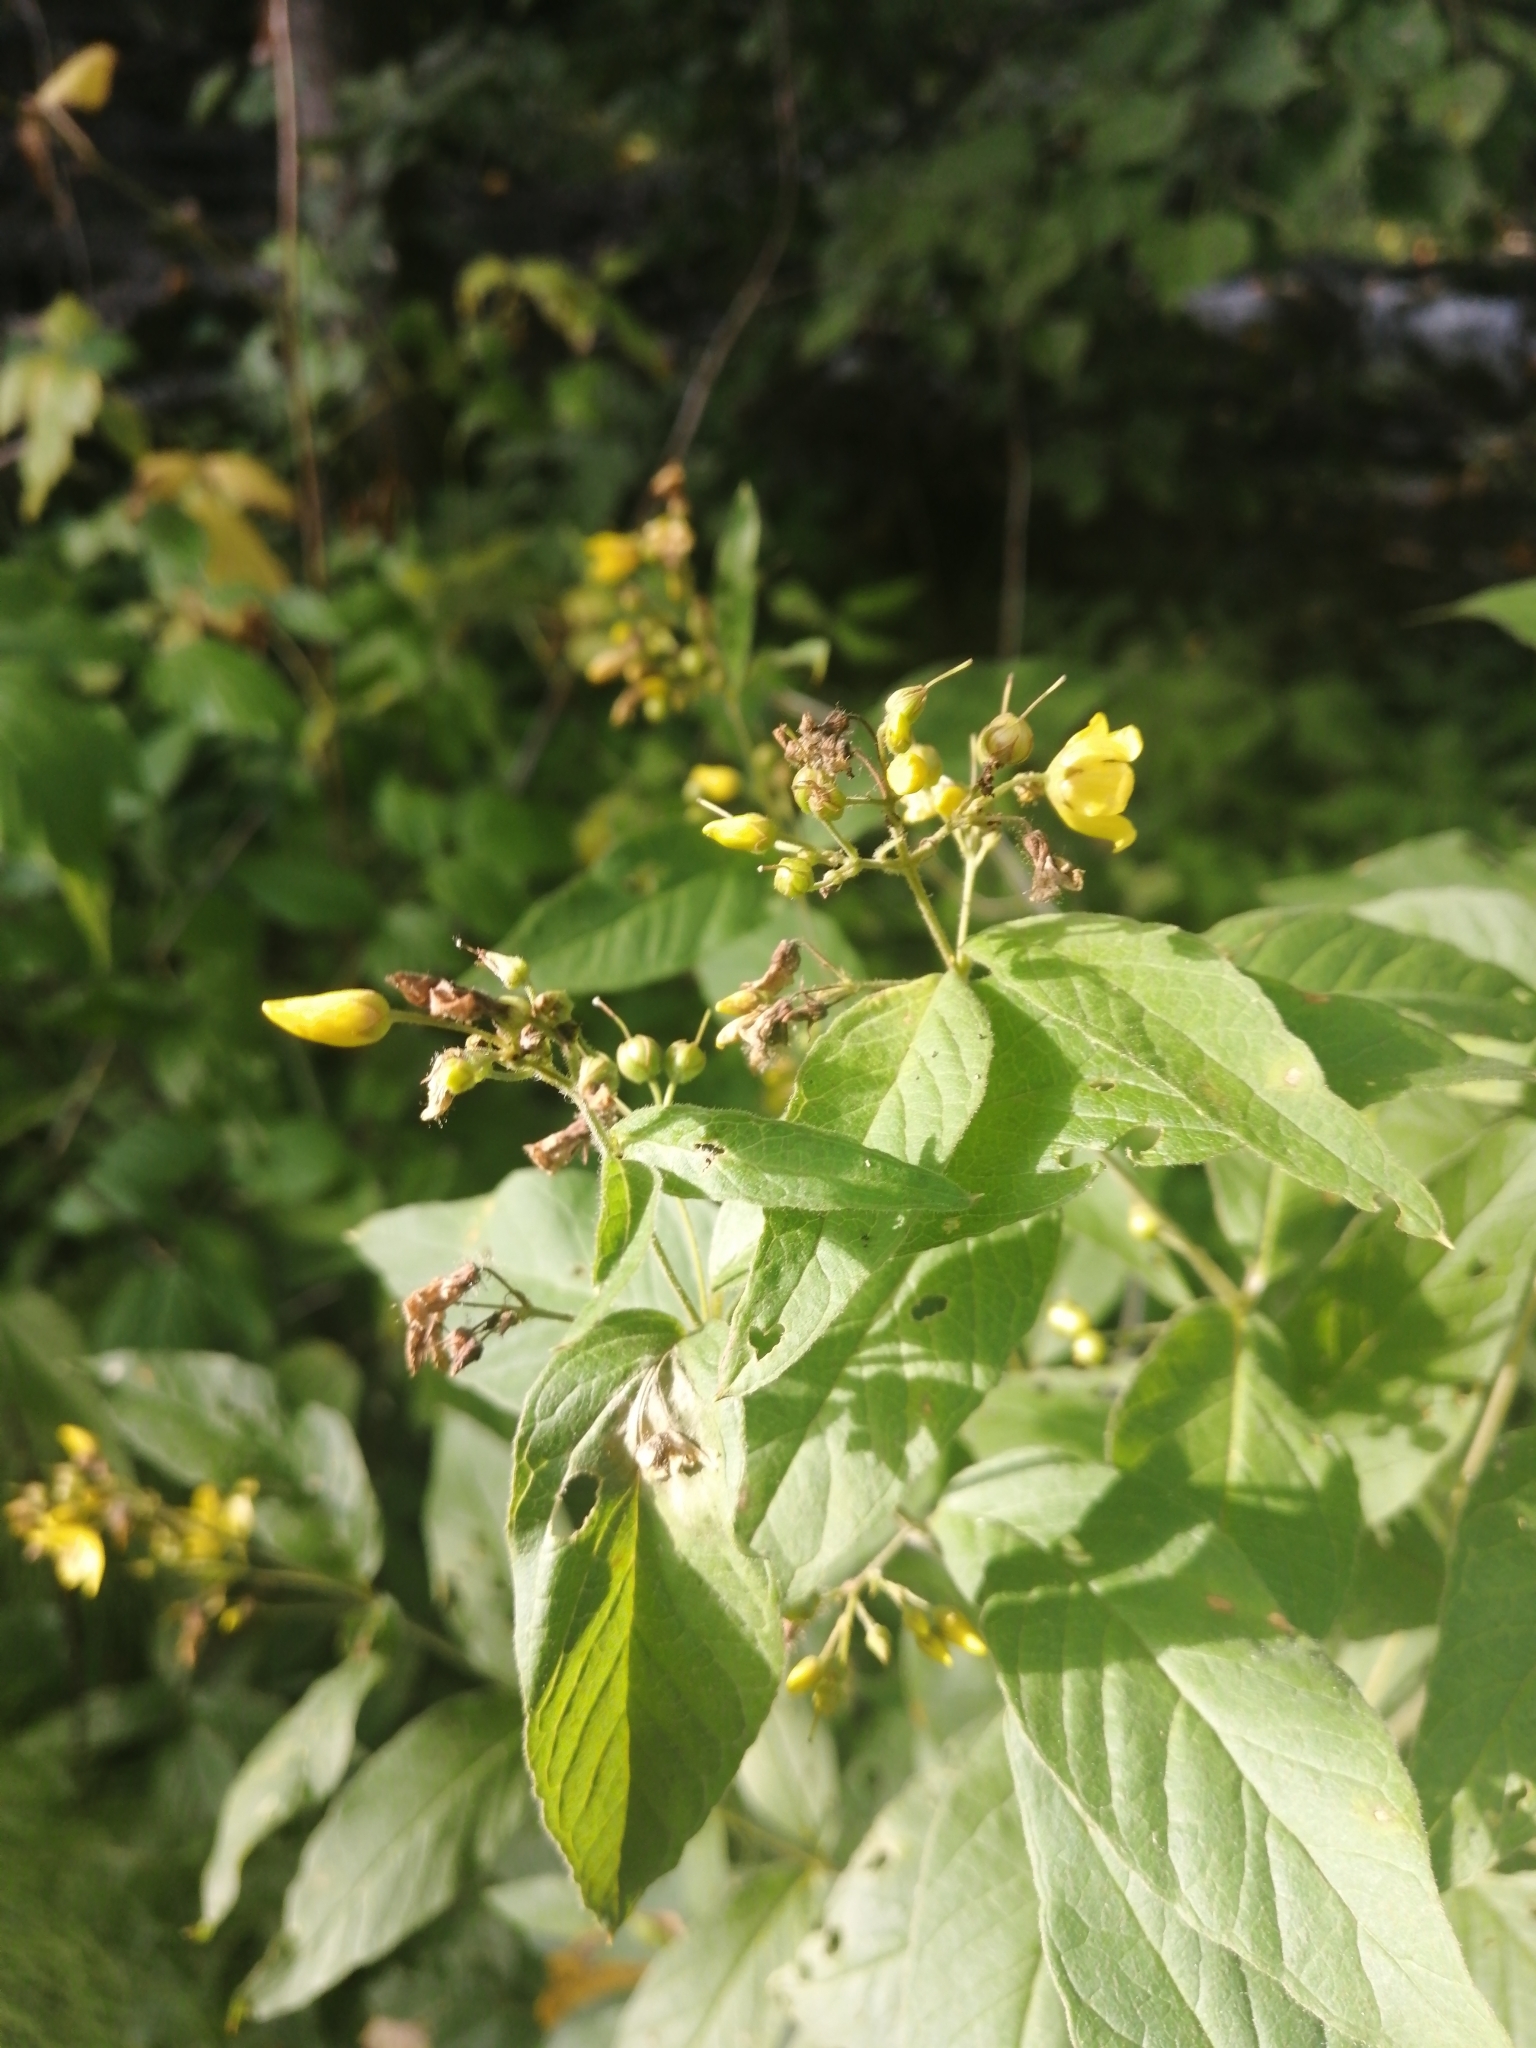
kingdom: Plantae
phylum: Tracheophyta
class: Magnoliopsida
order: Ericales
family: Primulaceae
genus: Lysimachia
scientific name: Lysimachia vulgaris
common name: Yellow loosestrife
